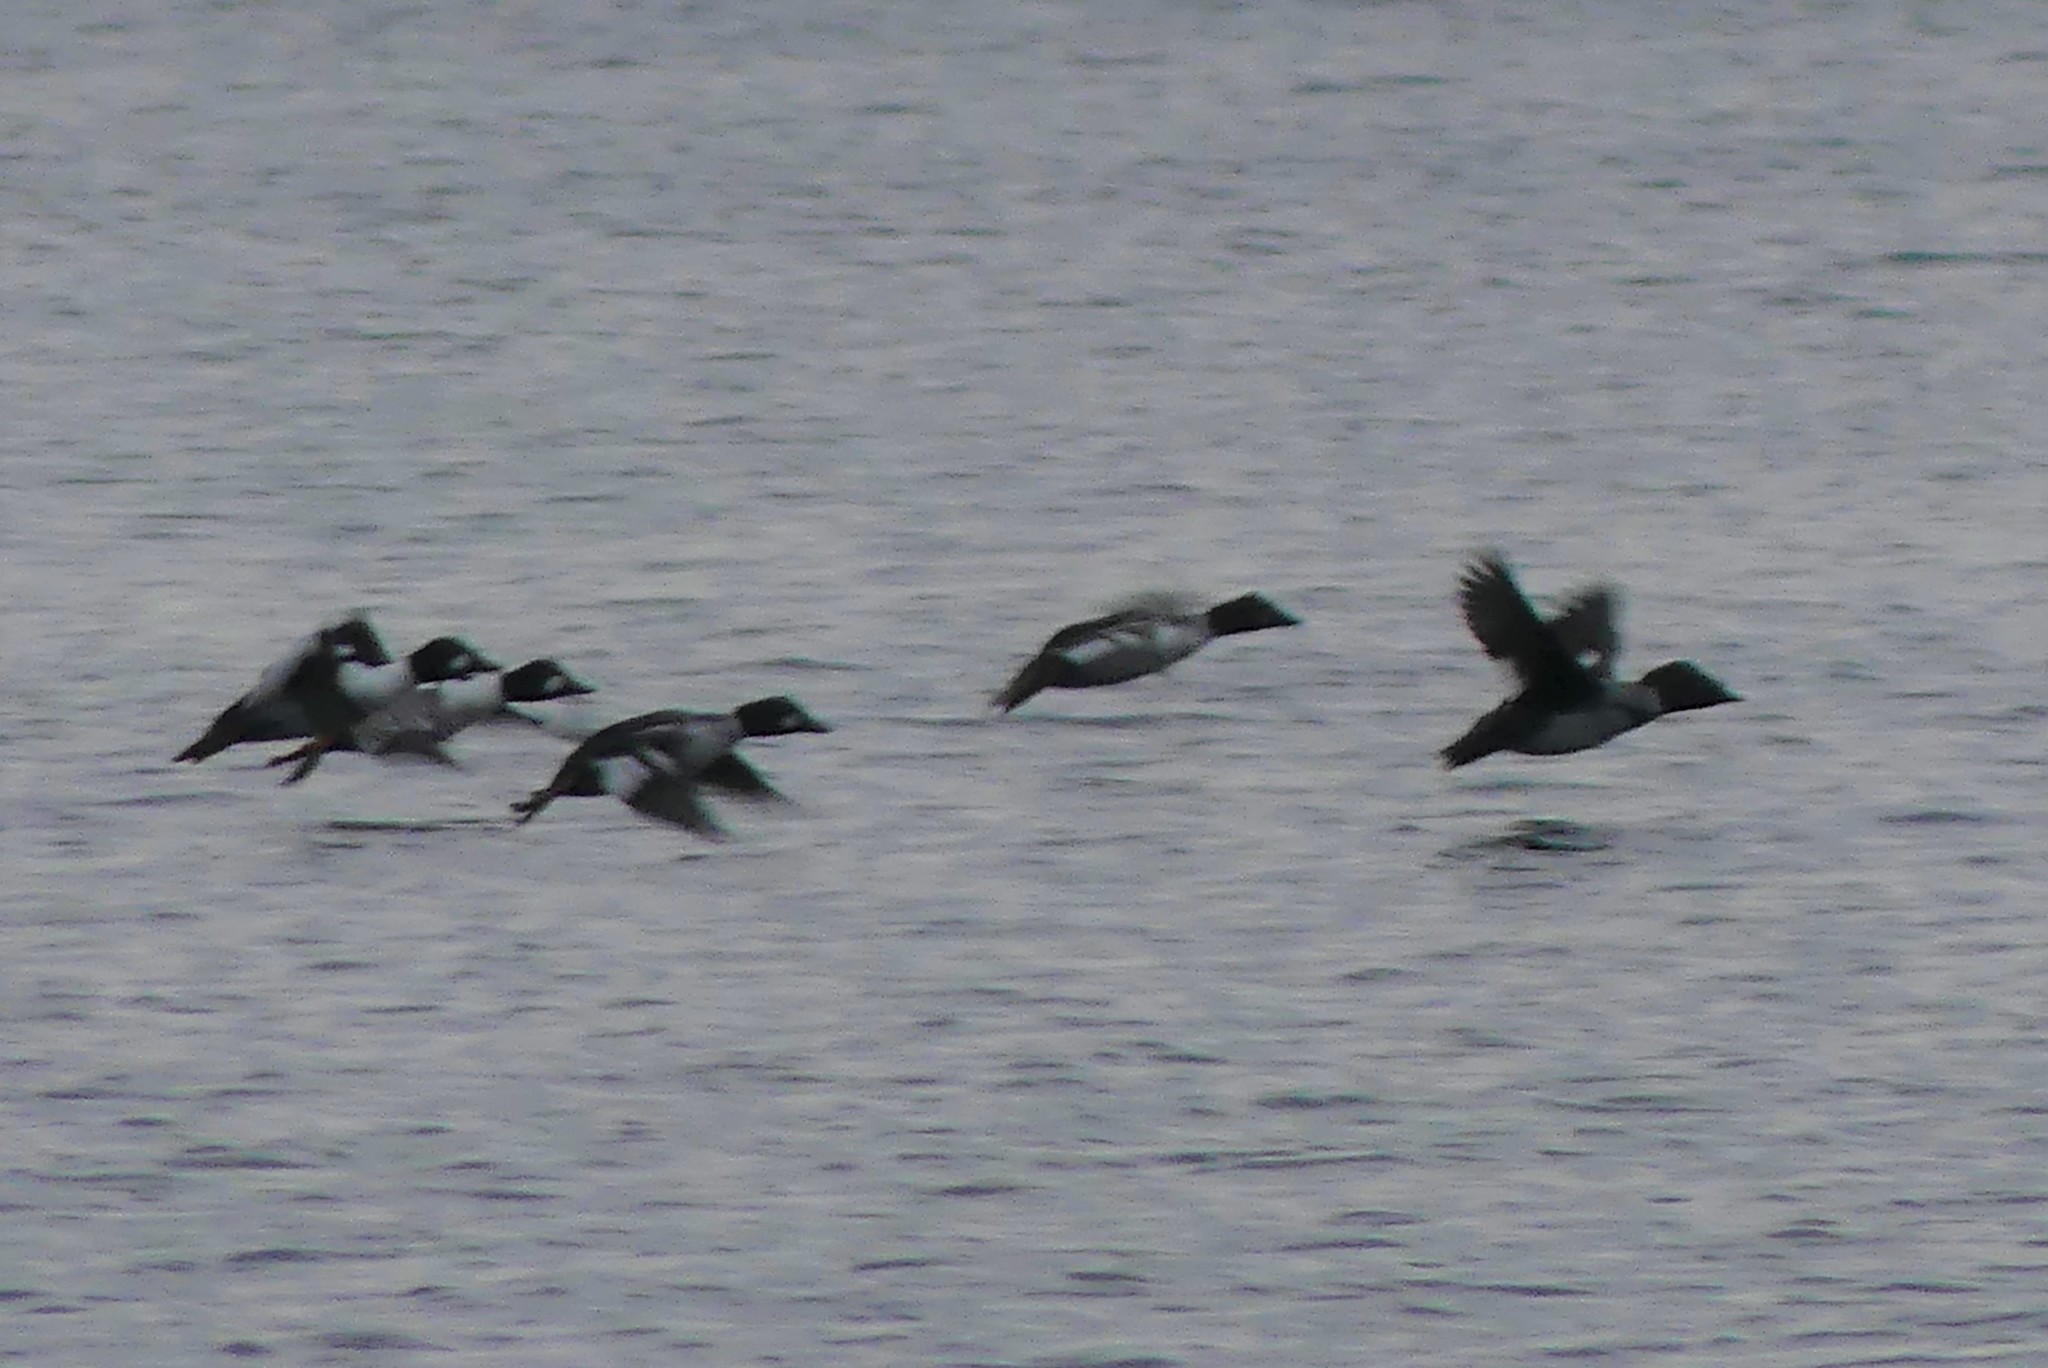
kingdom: Animalia
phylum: Chordata
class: Aves
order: Anseriformes
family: Anatidae
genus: Bucephala
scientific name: Bucephala clangula
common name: Common goldeneye
